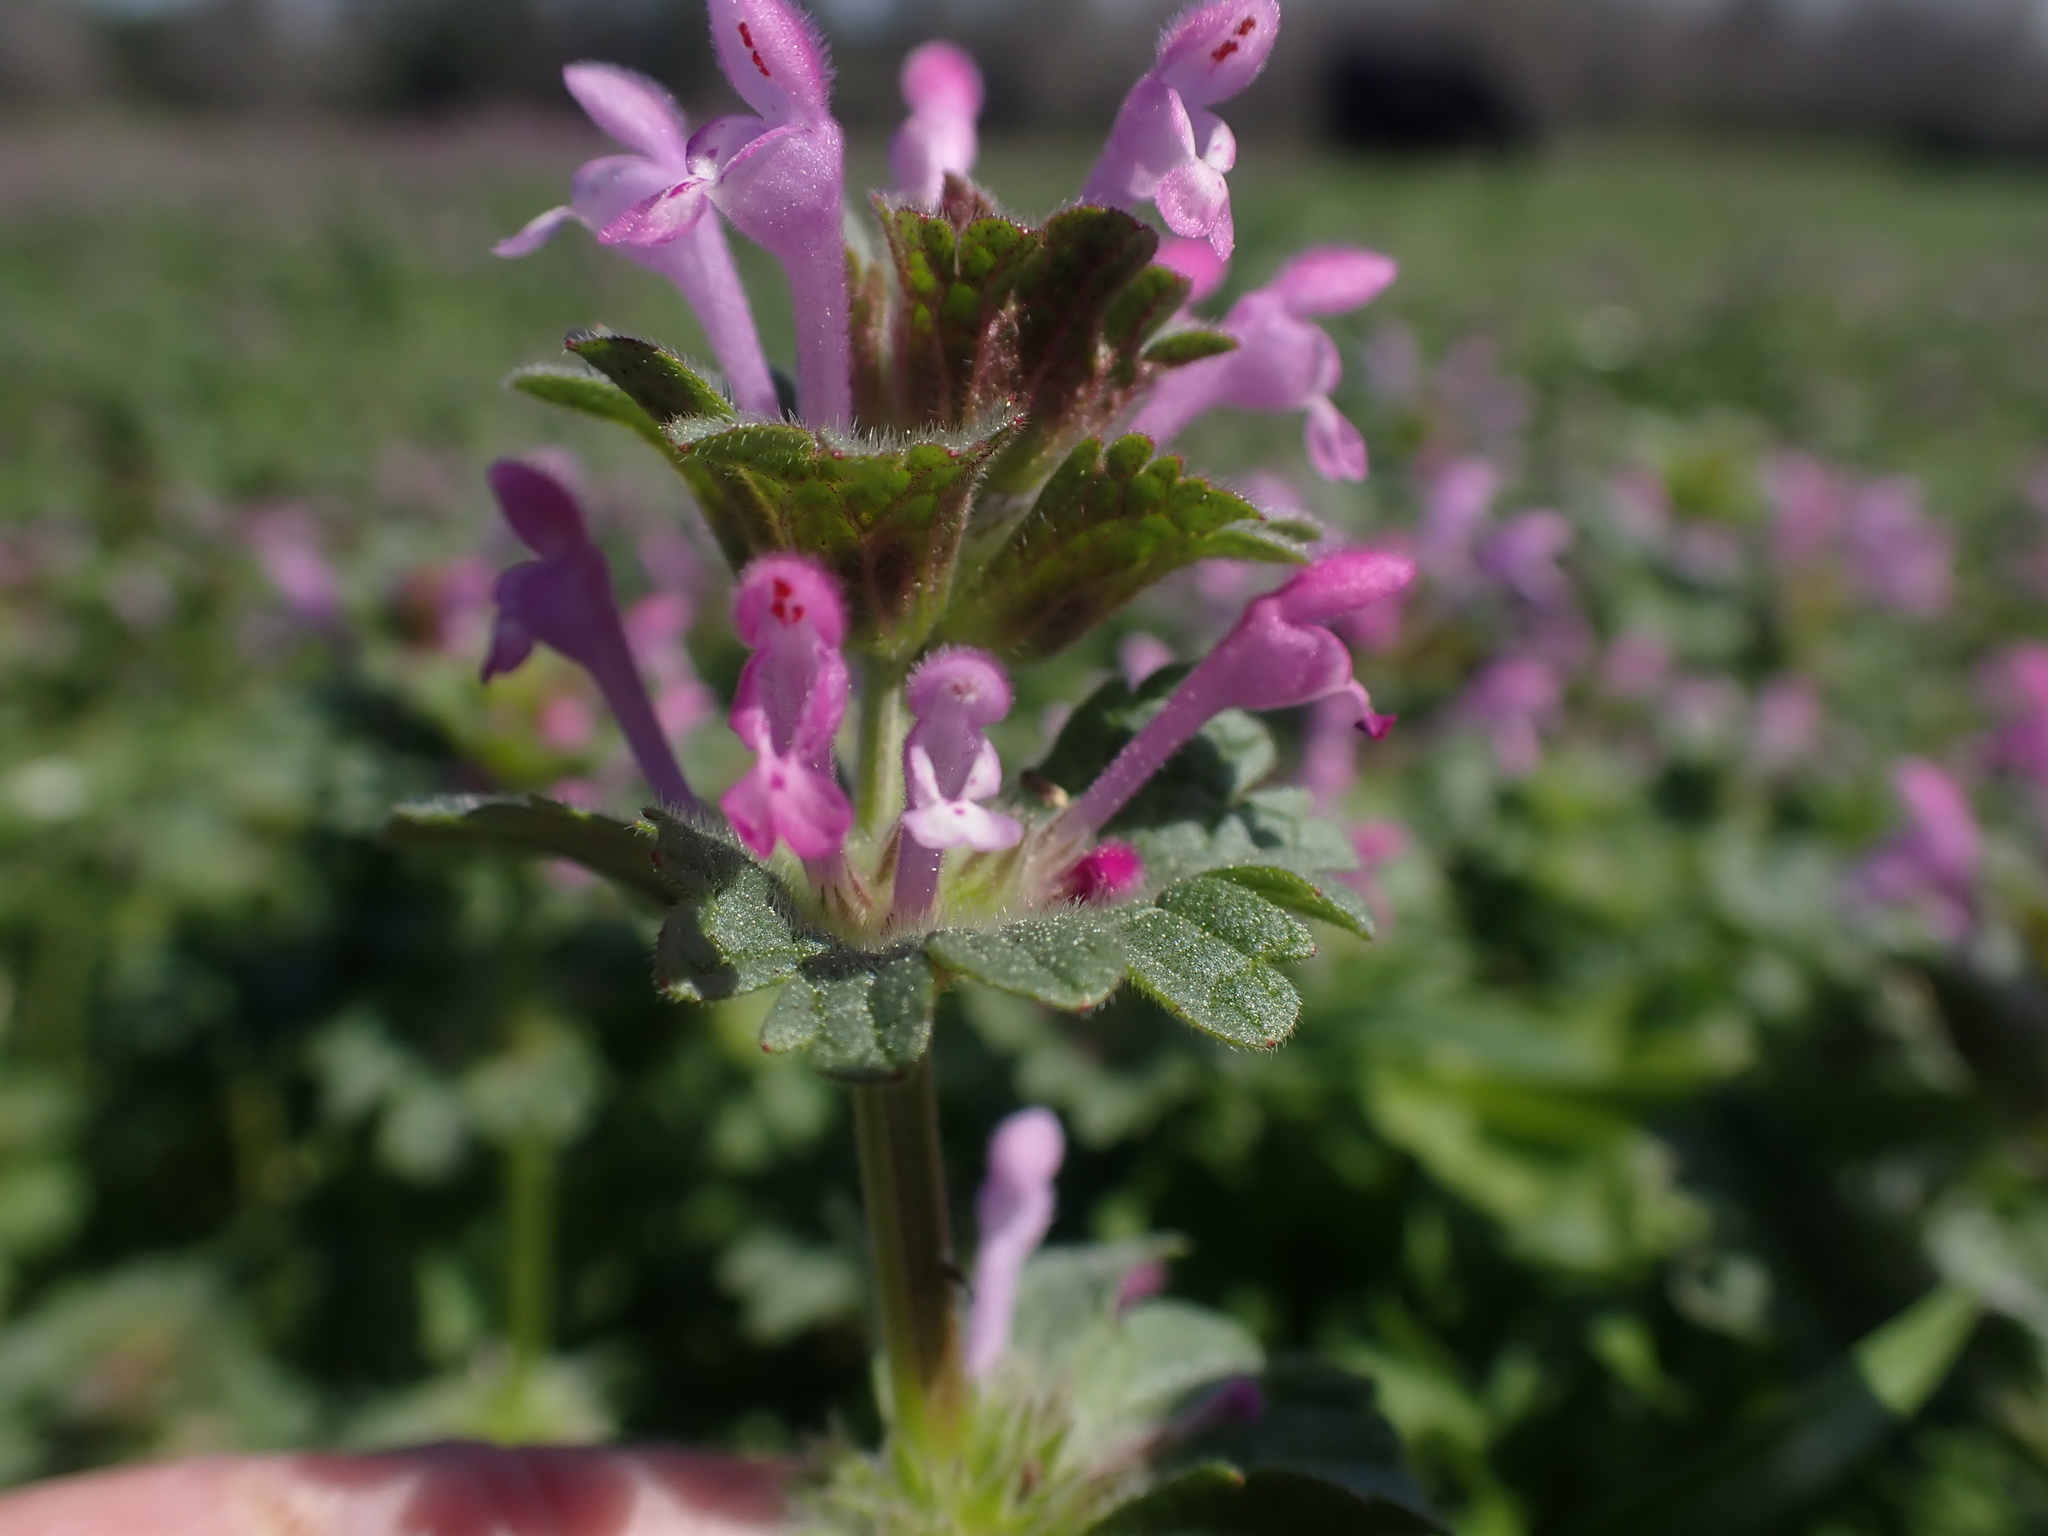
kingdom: Plantae
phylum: Tracheophyta
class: Magnoliopsida
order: Lamiales
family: Lamiaceae
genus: Lamium
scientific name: Lamium amplexicaule
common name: Henbit dead-nettle
